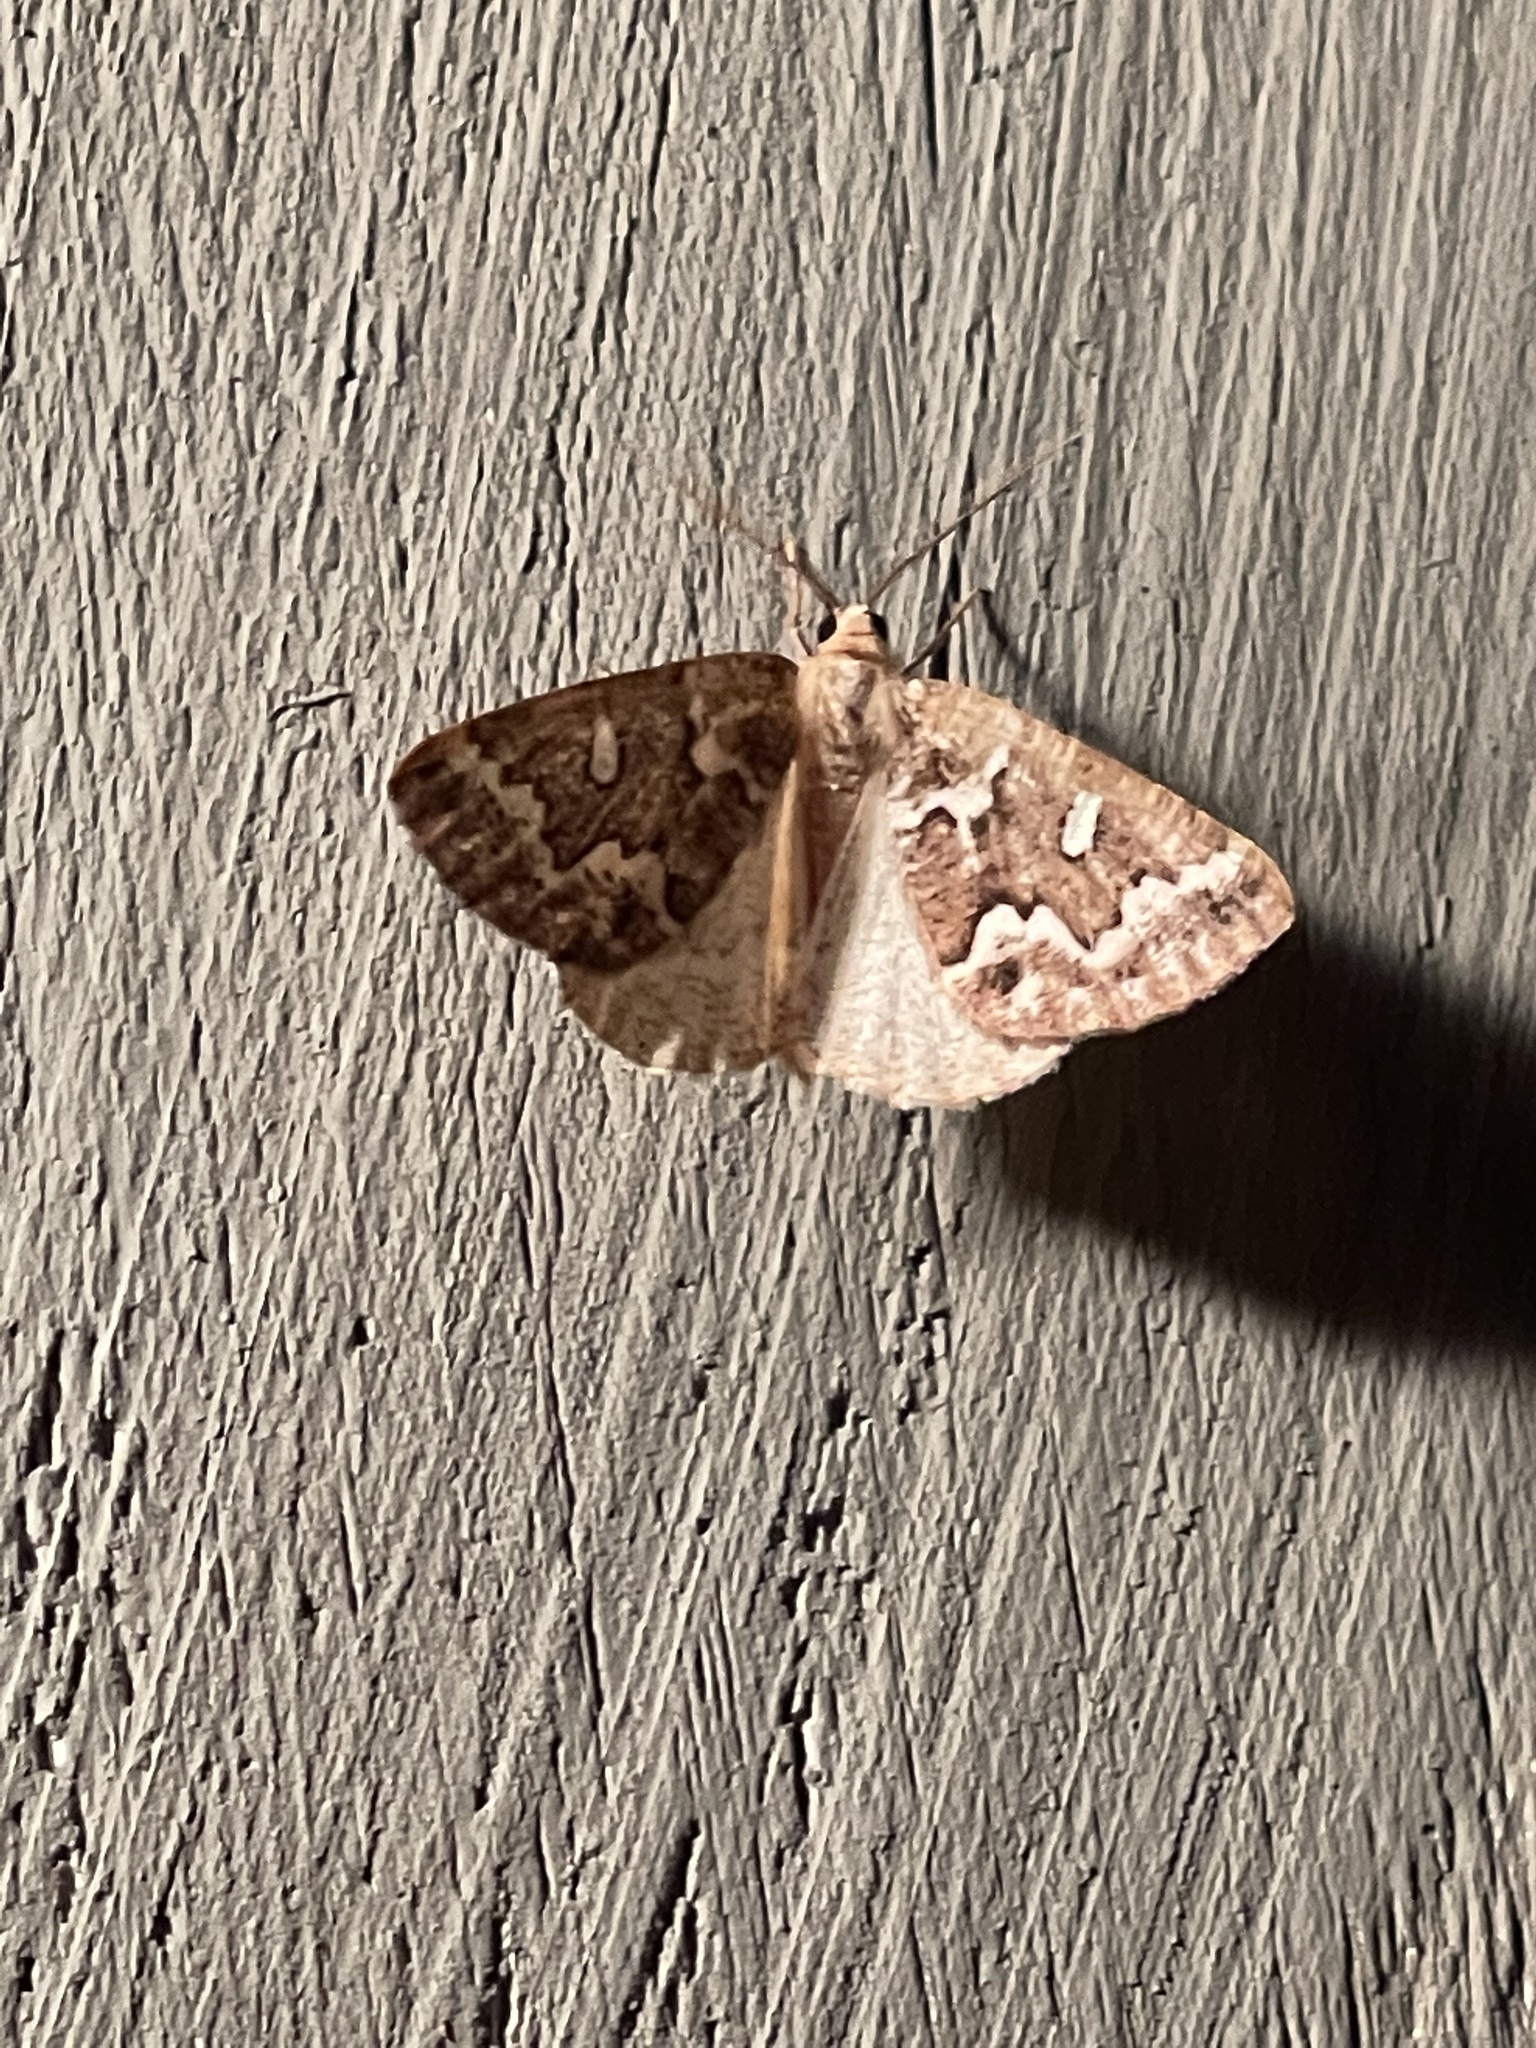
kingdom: Animalia
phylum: Arthropoda
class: Insecta
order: Lepidoptera
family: Geometridae
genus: Caripeta
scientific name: Caripeta divisata
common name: Gray spruce looper
